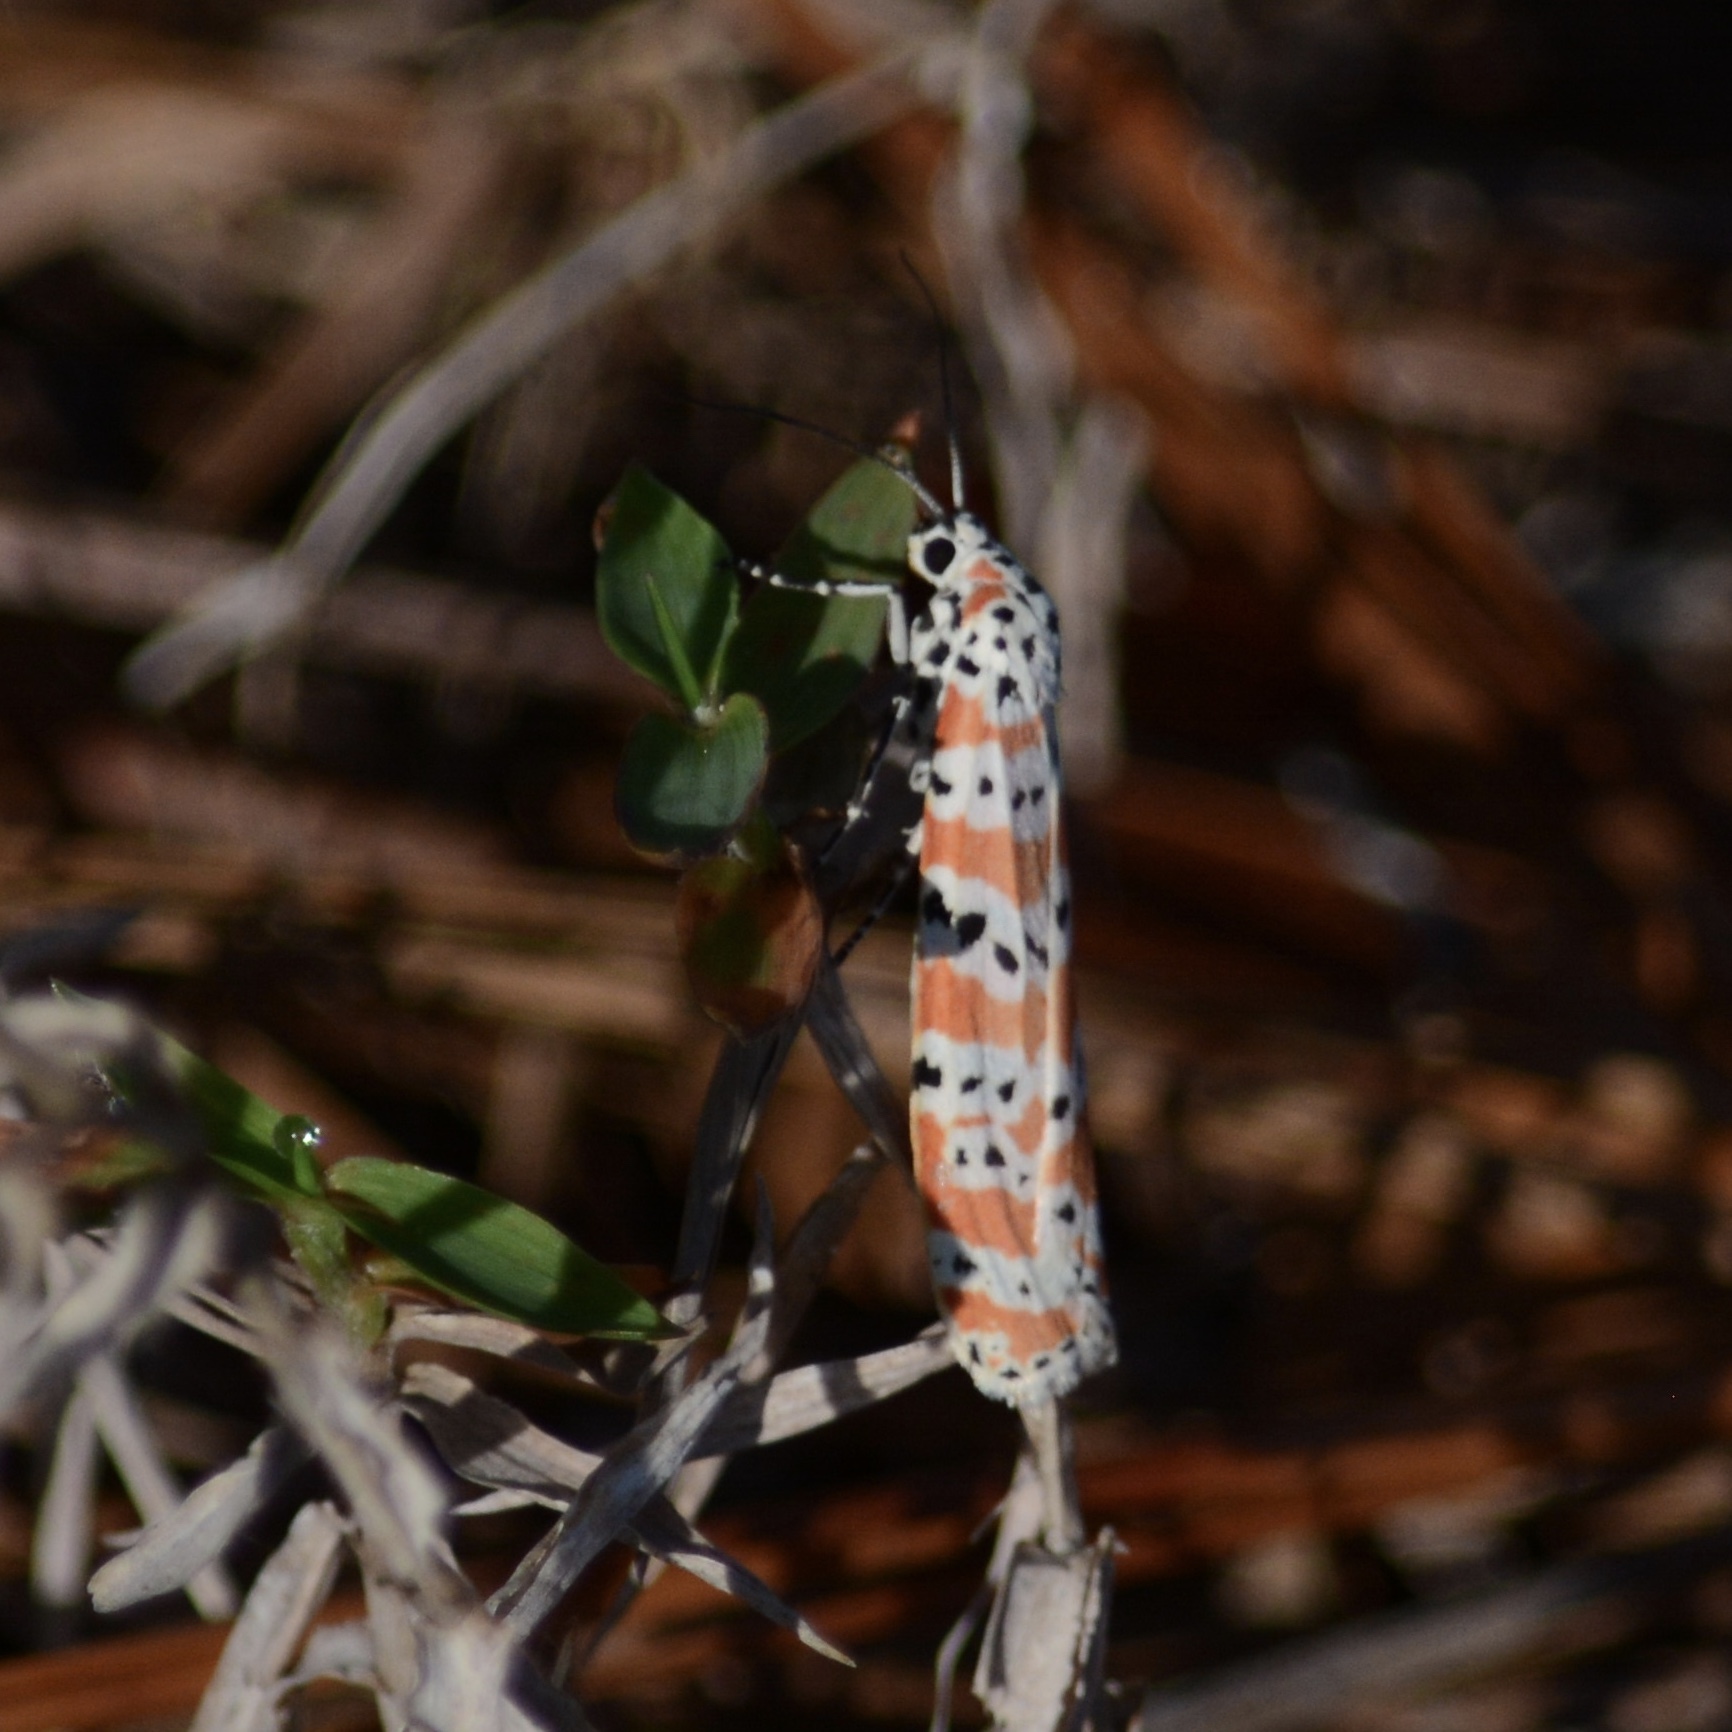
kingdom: Animalia
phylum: Arthropoda
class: Insecta
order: Lepidoptera
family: Erebidae
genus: Utetheisa
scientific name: Utetheisa ornatrix
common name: Beautiful utetheisa
